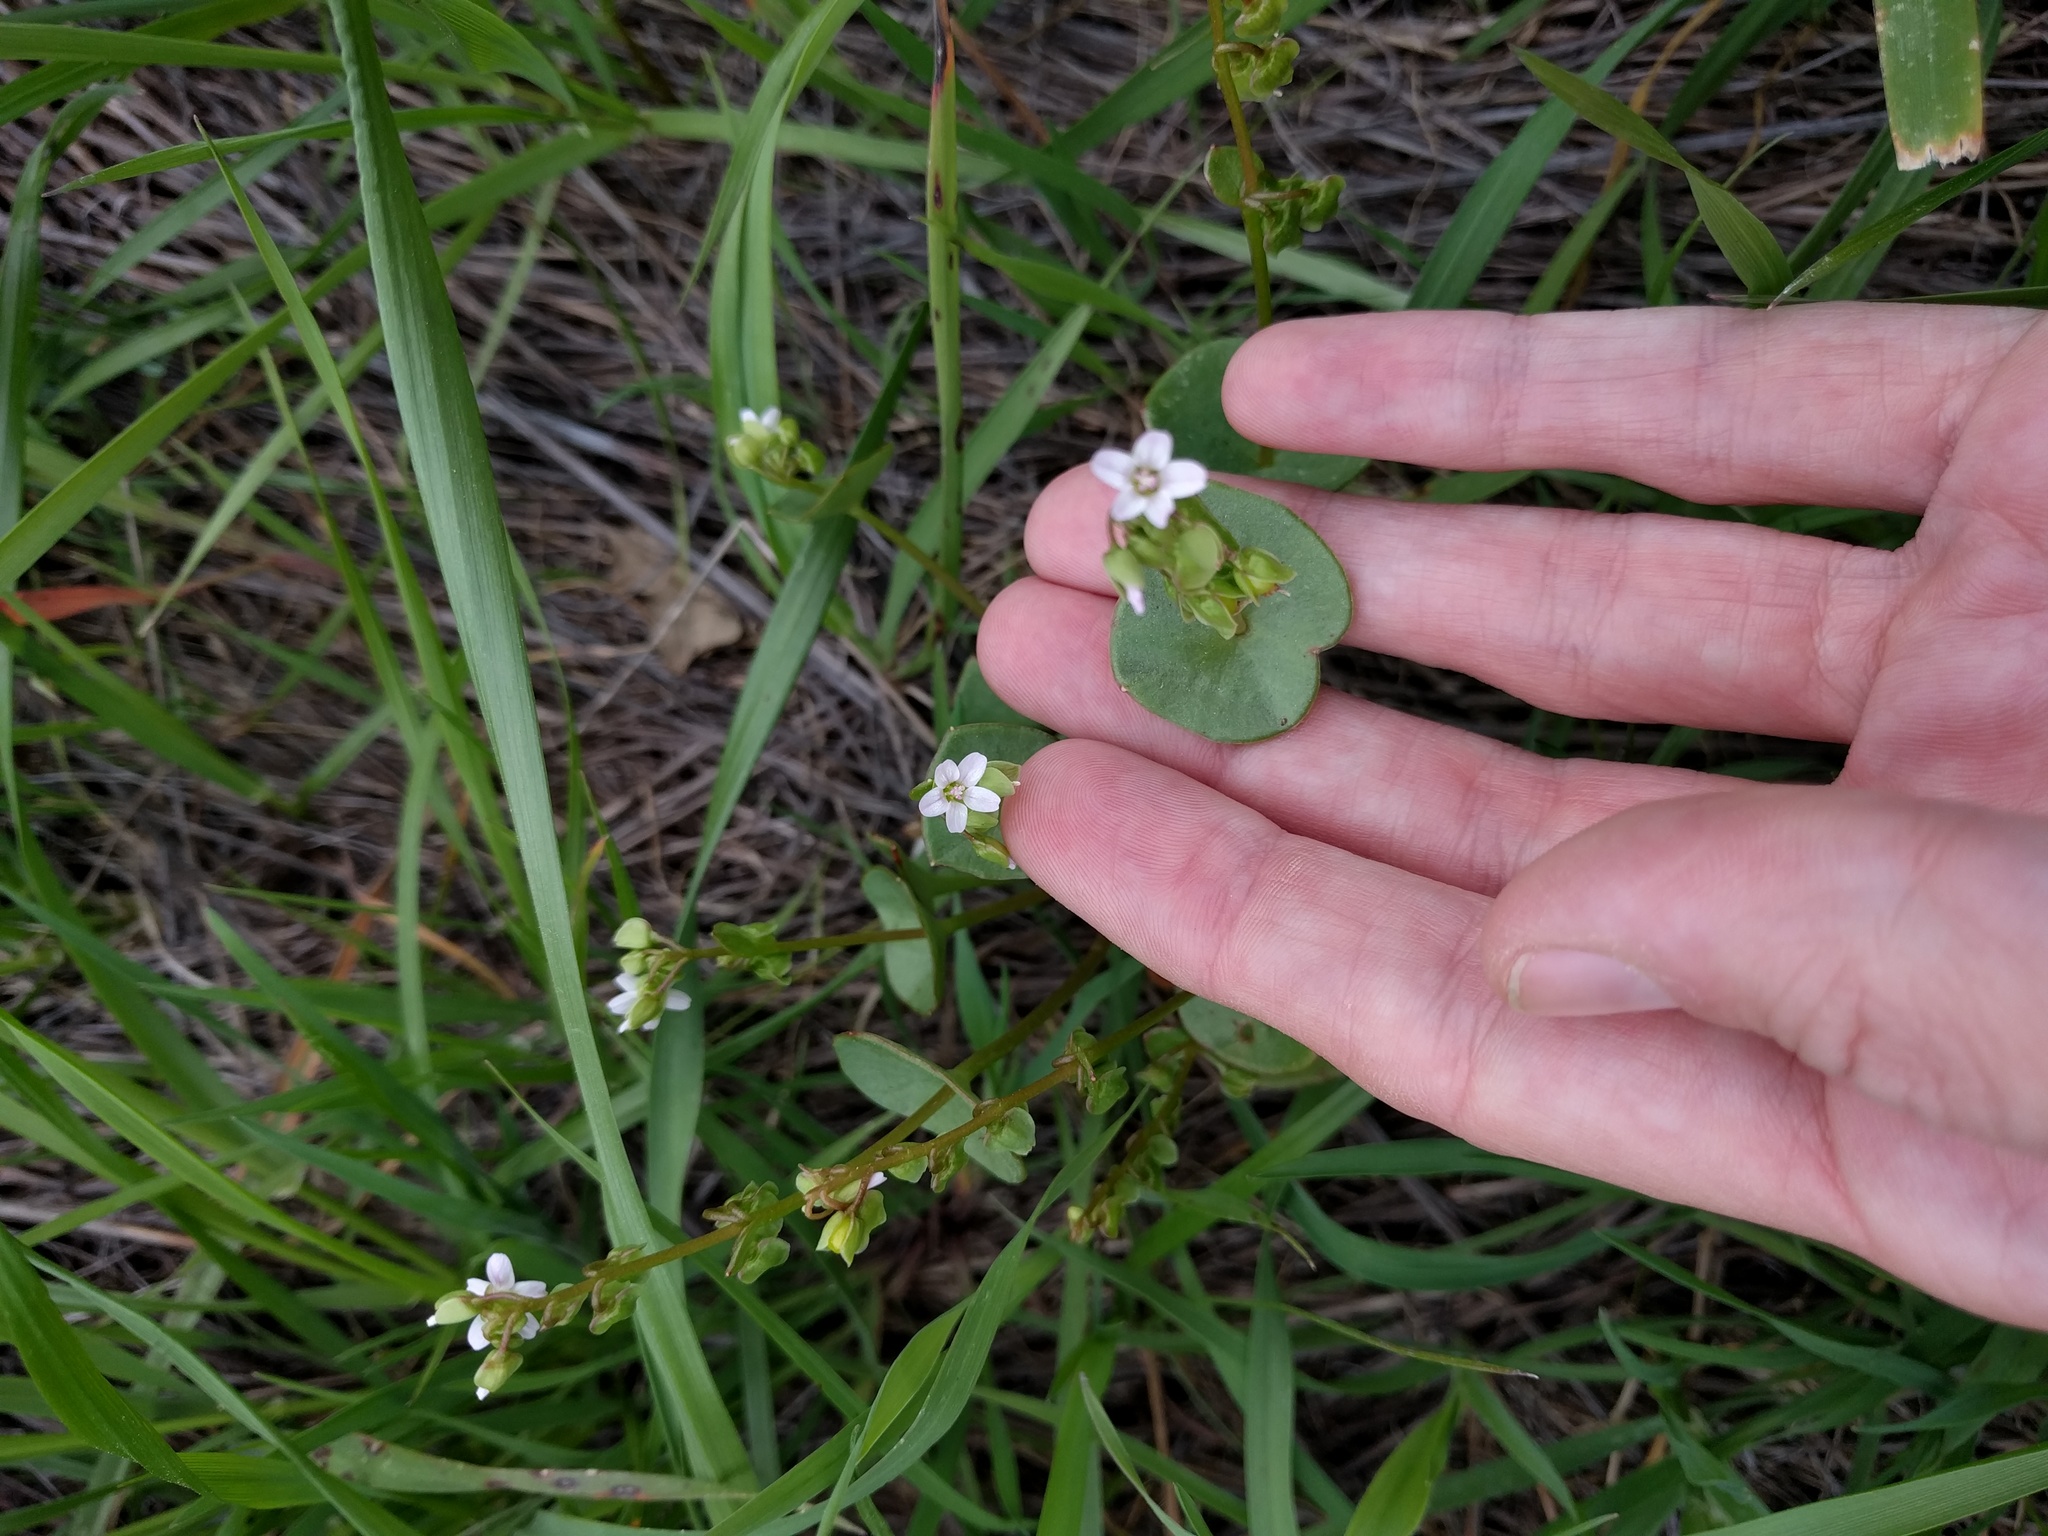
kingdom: Plantae
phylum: Tracheophyta
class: Magnoliopsida
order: Caryophyllales
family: Montiaceae
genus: Claytonia
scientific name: Claytonia perfoliata
